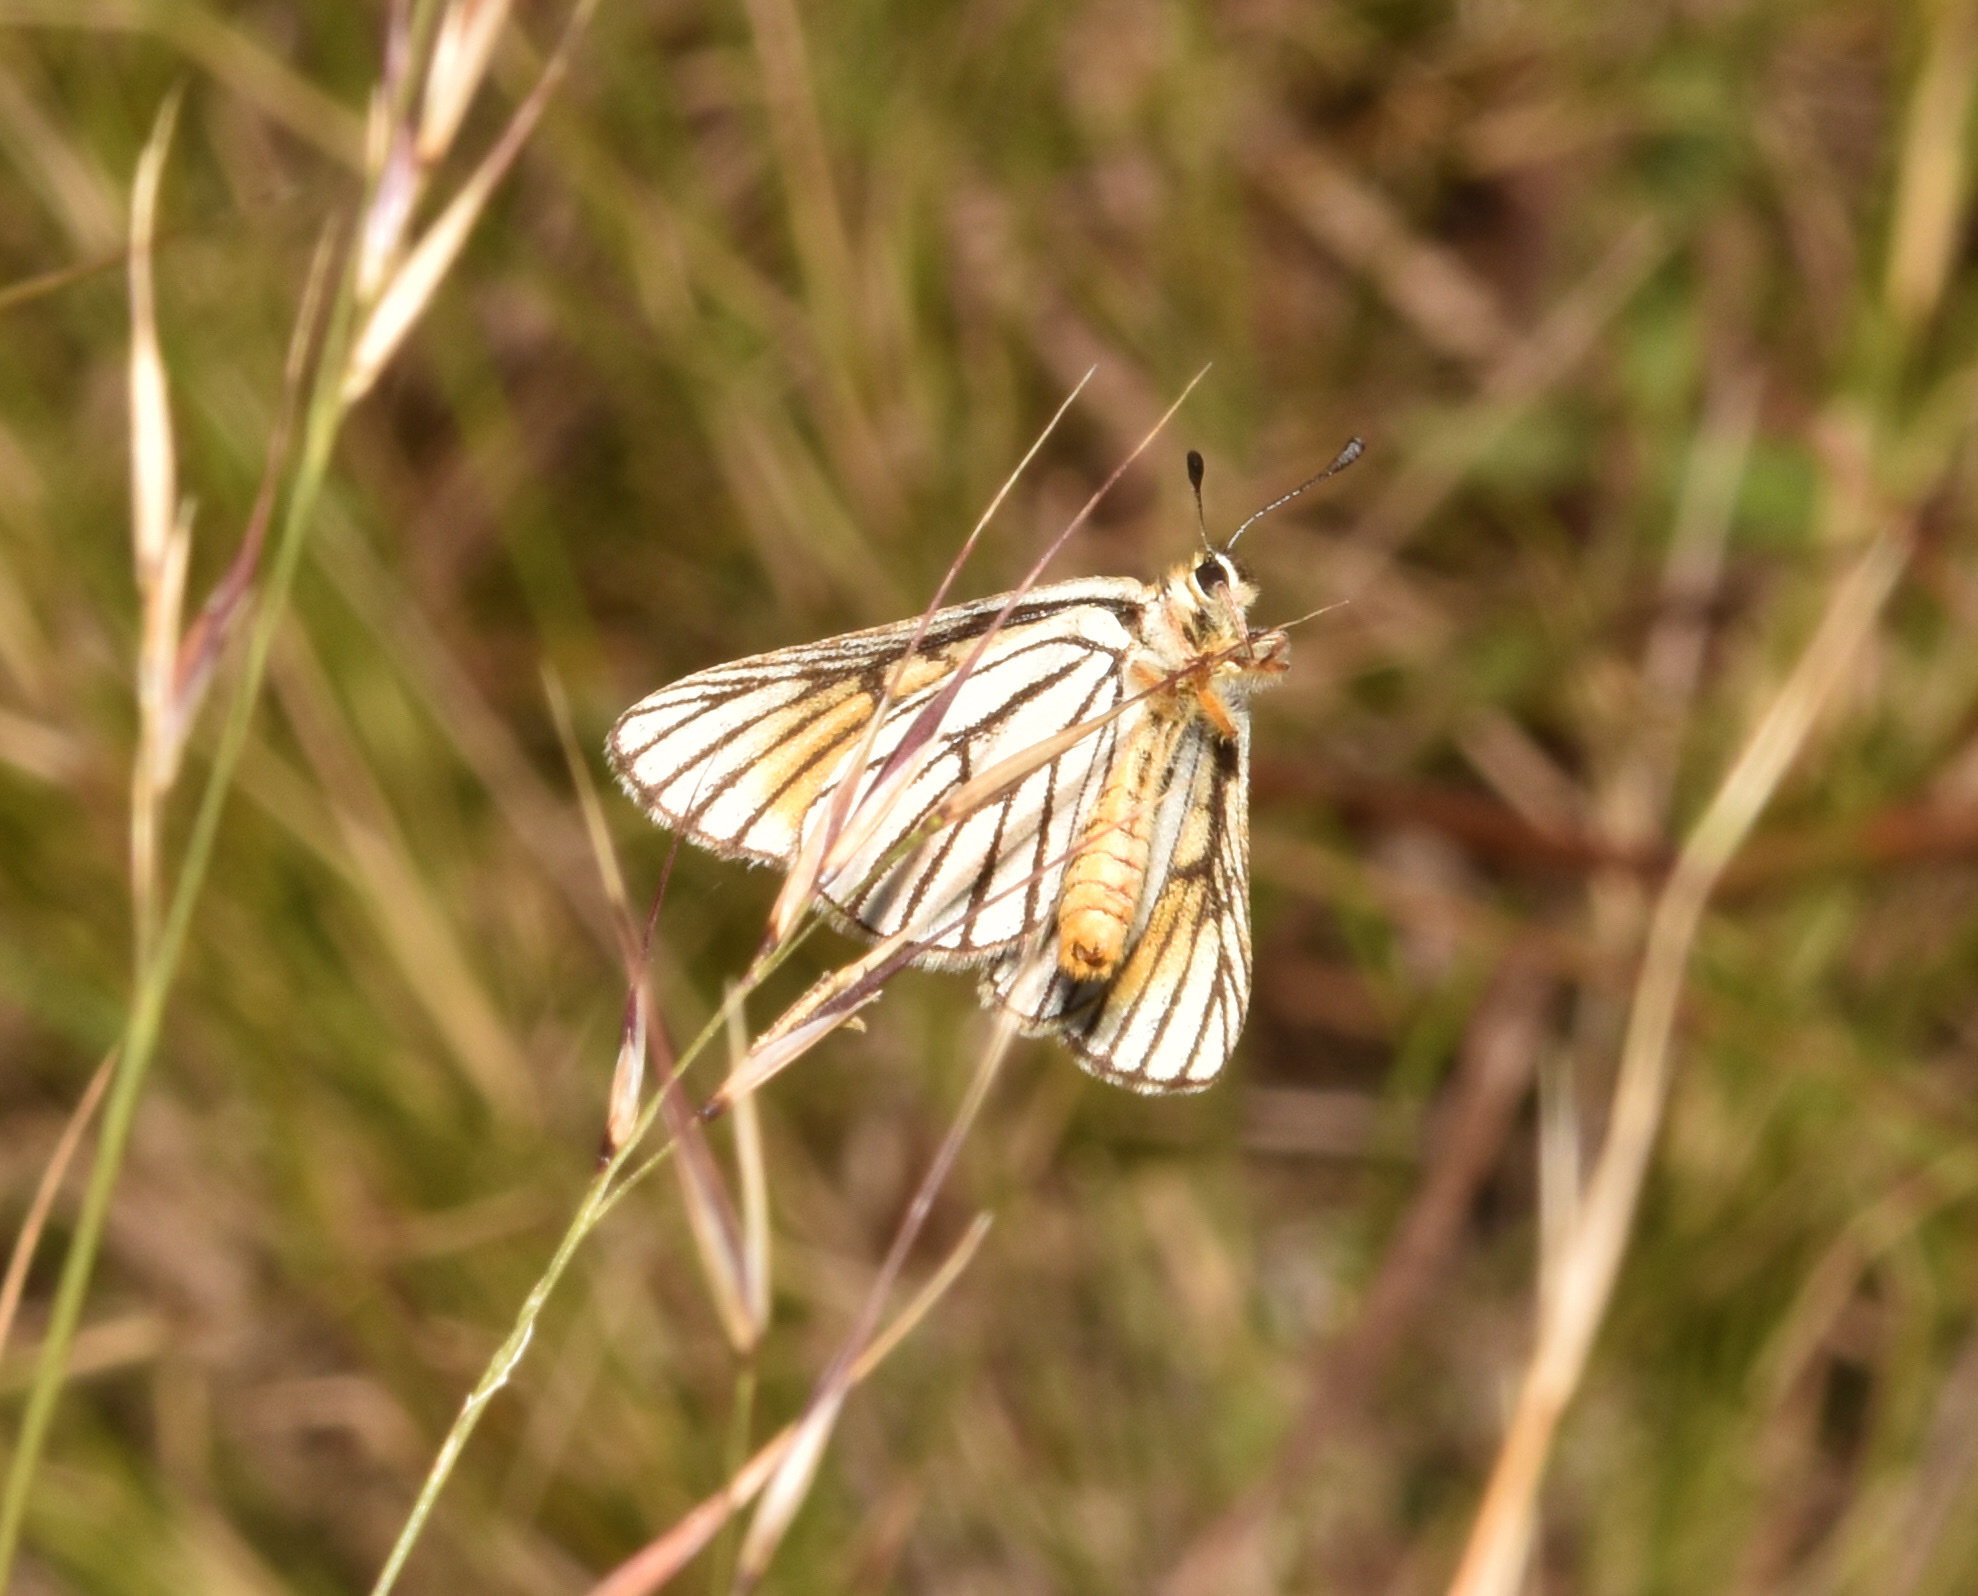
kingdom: Animalia
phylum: Arthropoda
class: Insecta
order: Lepidoptera
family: Lycaenidae
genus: Alaena
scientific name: Alaena amazoula
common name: Yellow zulu
